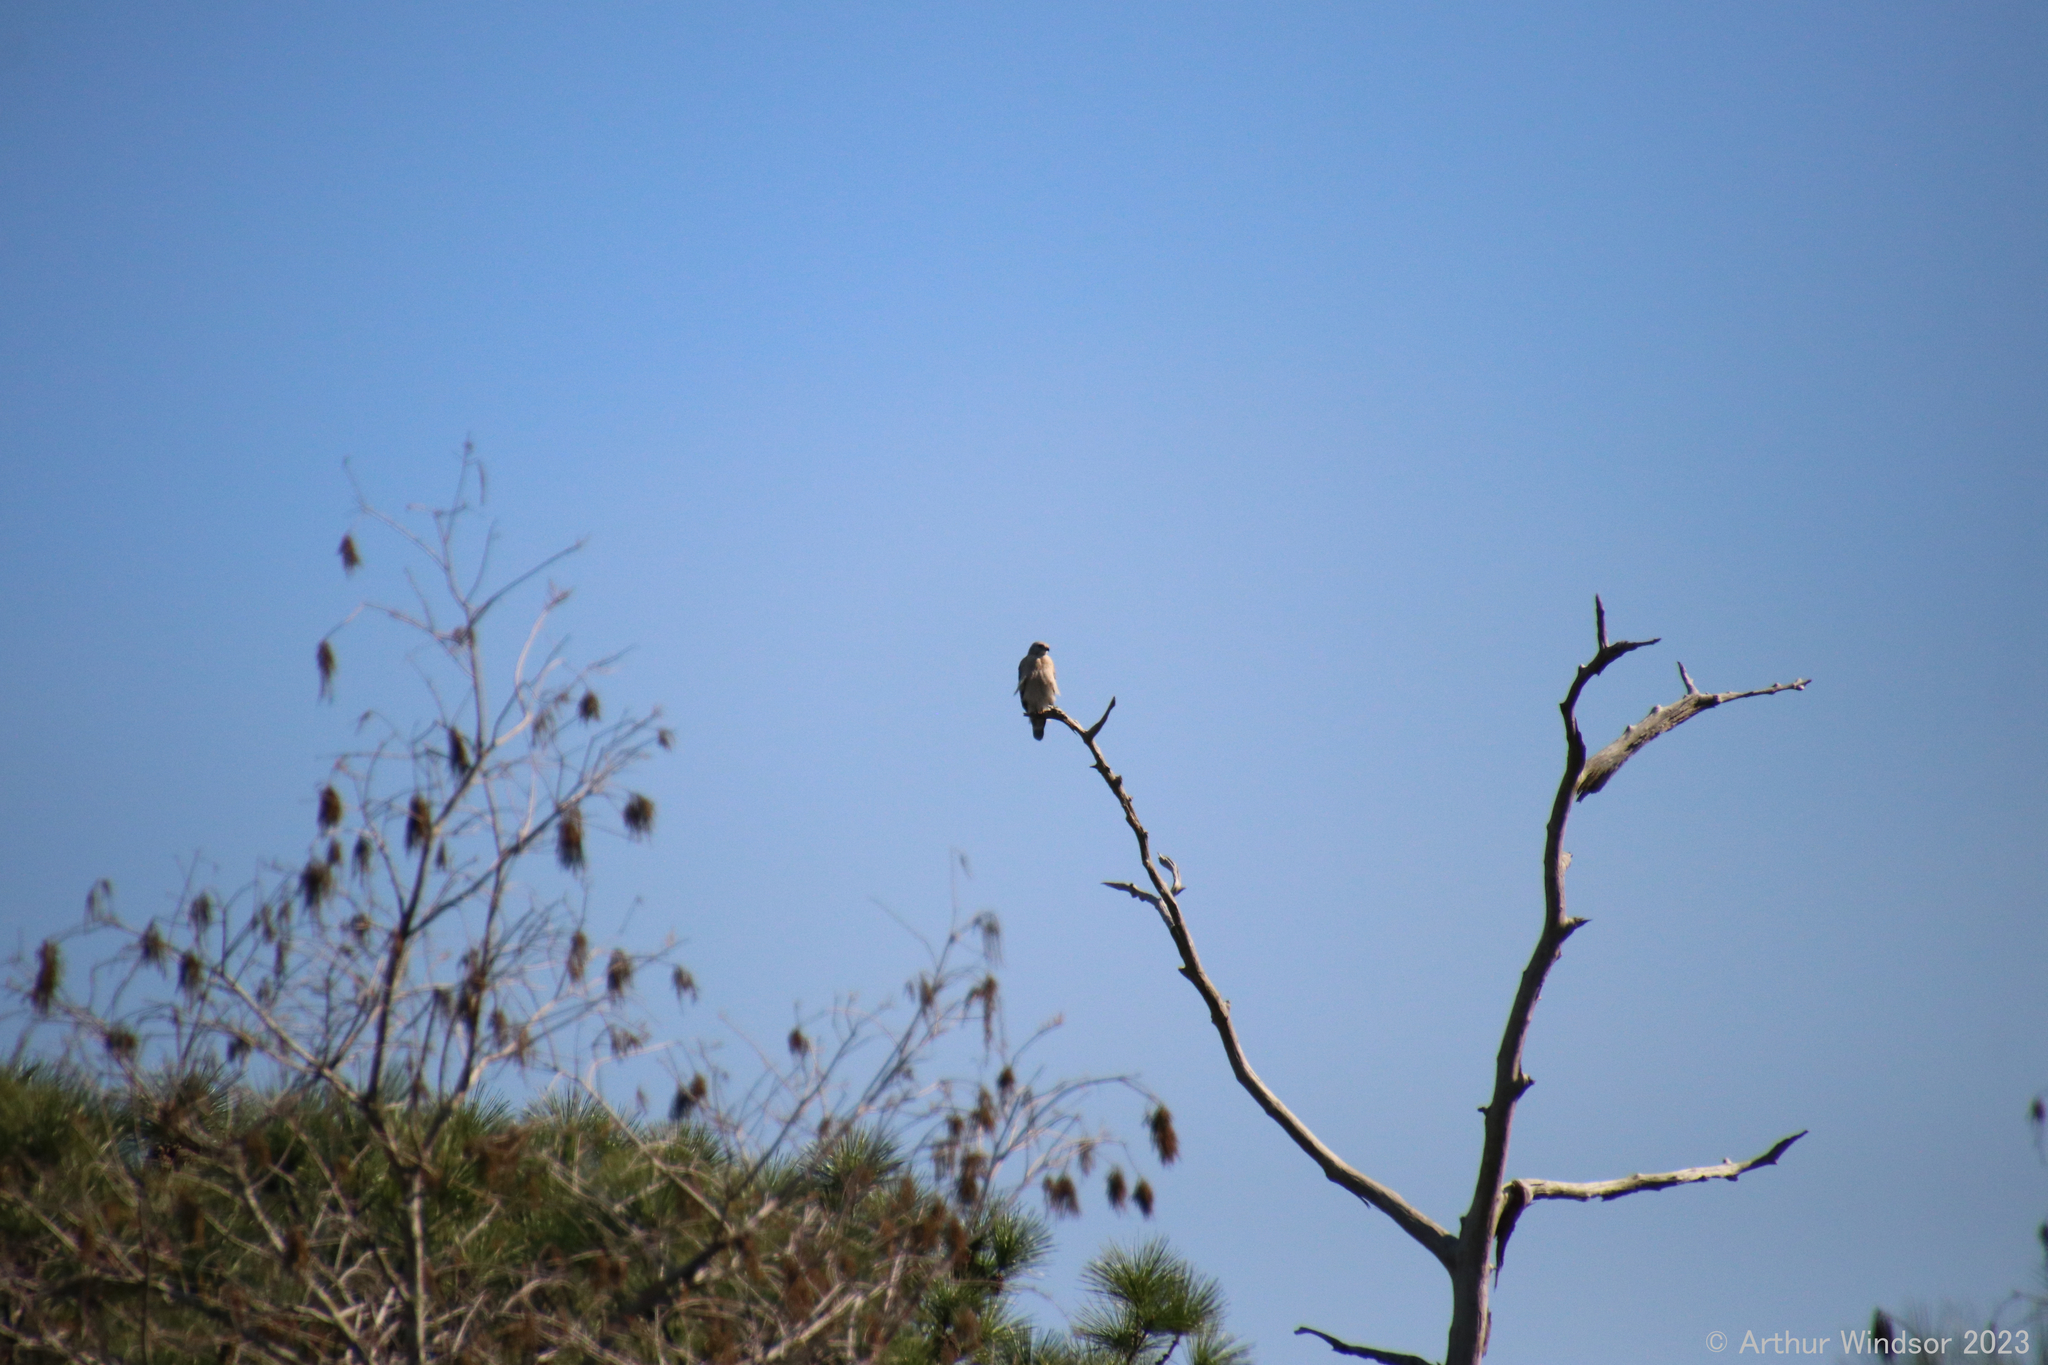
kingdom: Animalia
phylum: Chordata
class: Aves
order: Accipitriformes
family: Accipitridae
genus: Buteo
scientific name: Buteo lineatus
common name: Red-shouldered hawk
